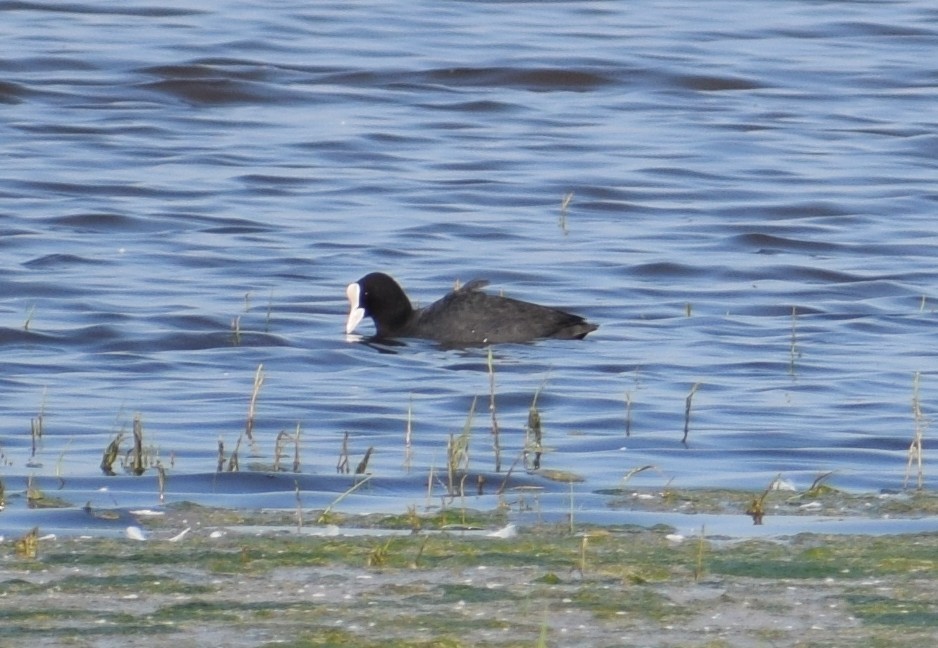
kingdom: Animalia
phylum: Chordata
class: Aves
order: Gruiformes
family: Rallidae
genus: Fulica
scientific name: Fulica atra
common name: Eurasian coot
